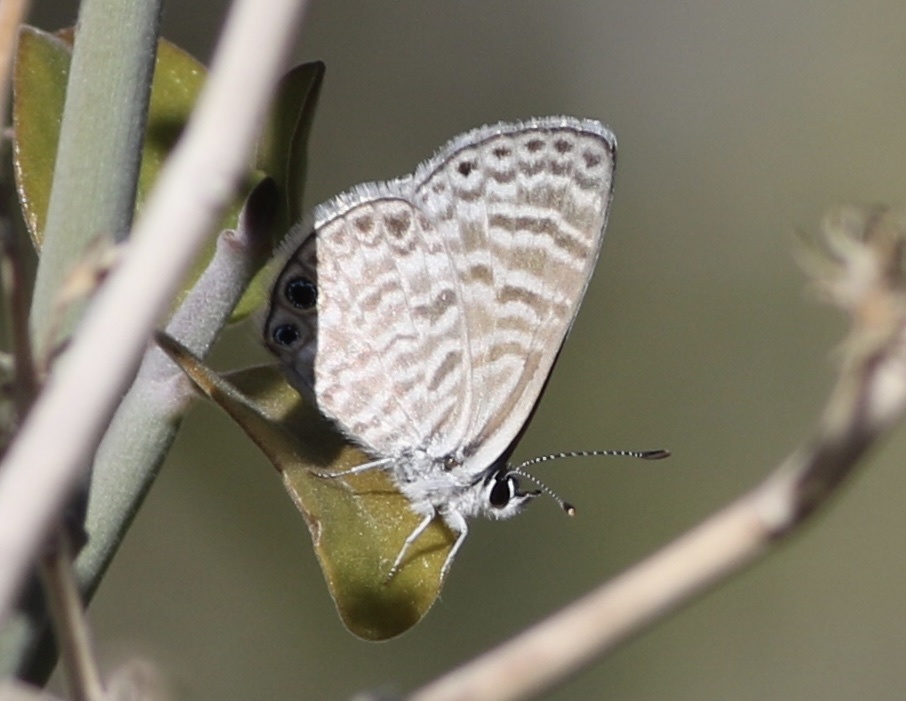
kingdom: Animalia
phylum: Arthropoda
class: Insecta
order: Lepidoptera
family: Lycaenidae
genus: Leptotes
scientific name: Leptotes marina
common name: Marine blue
